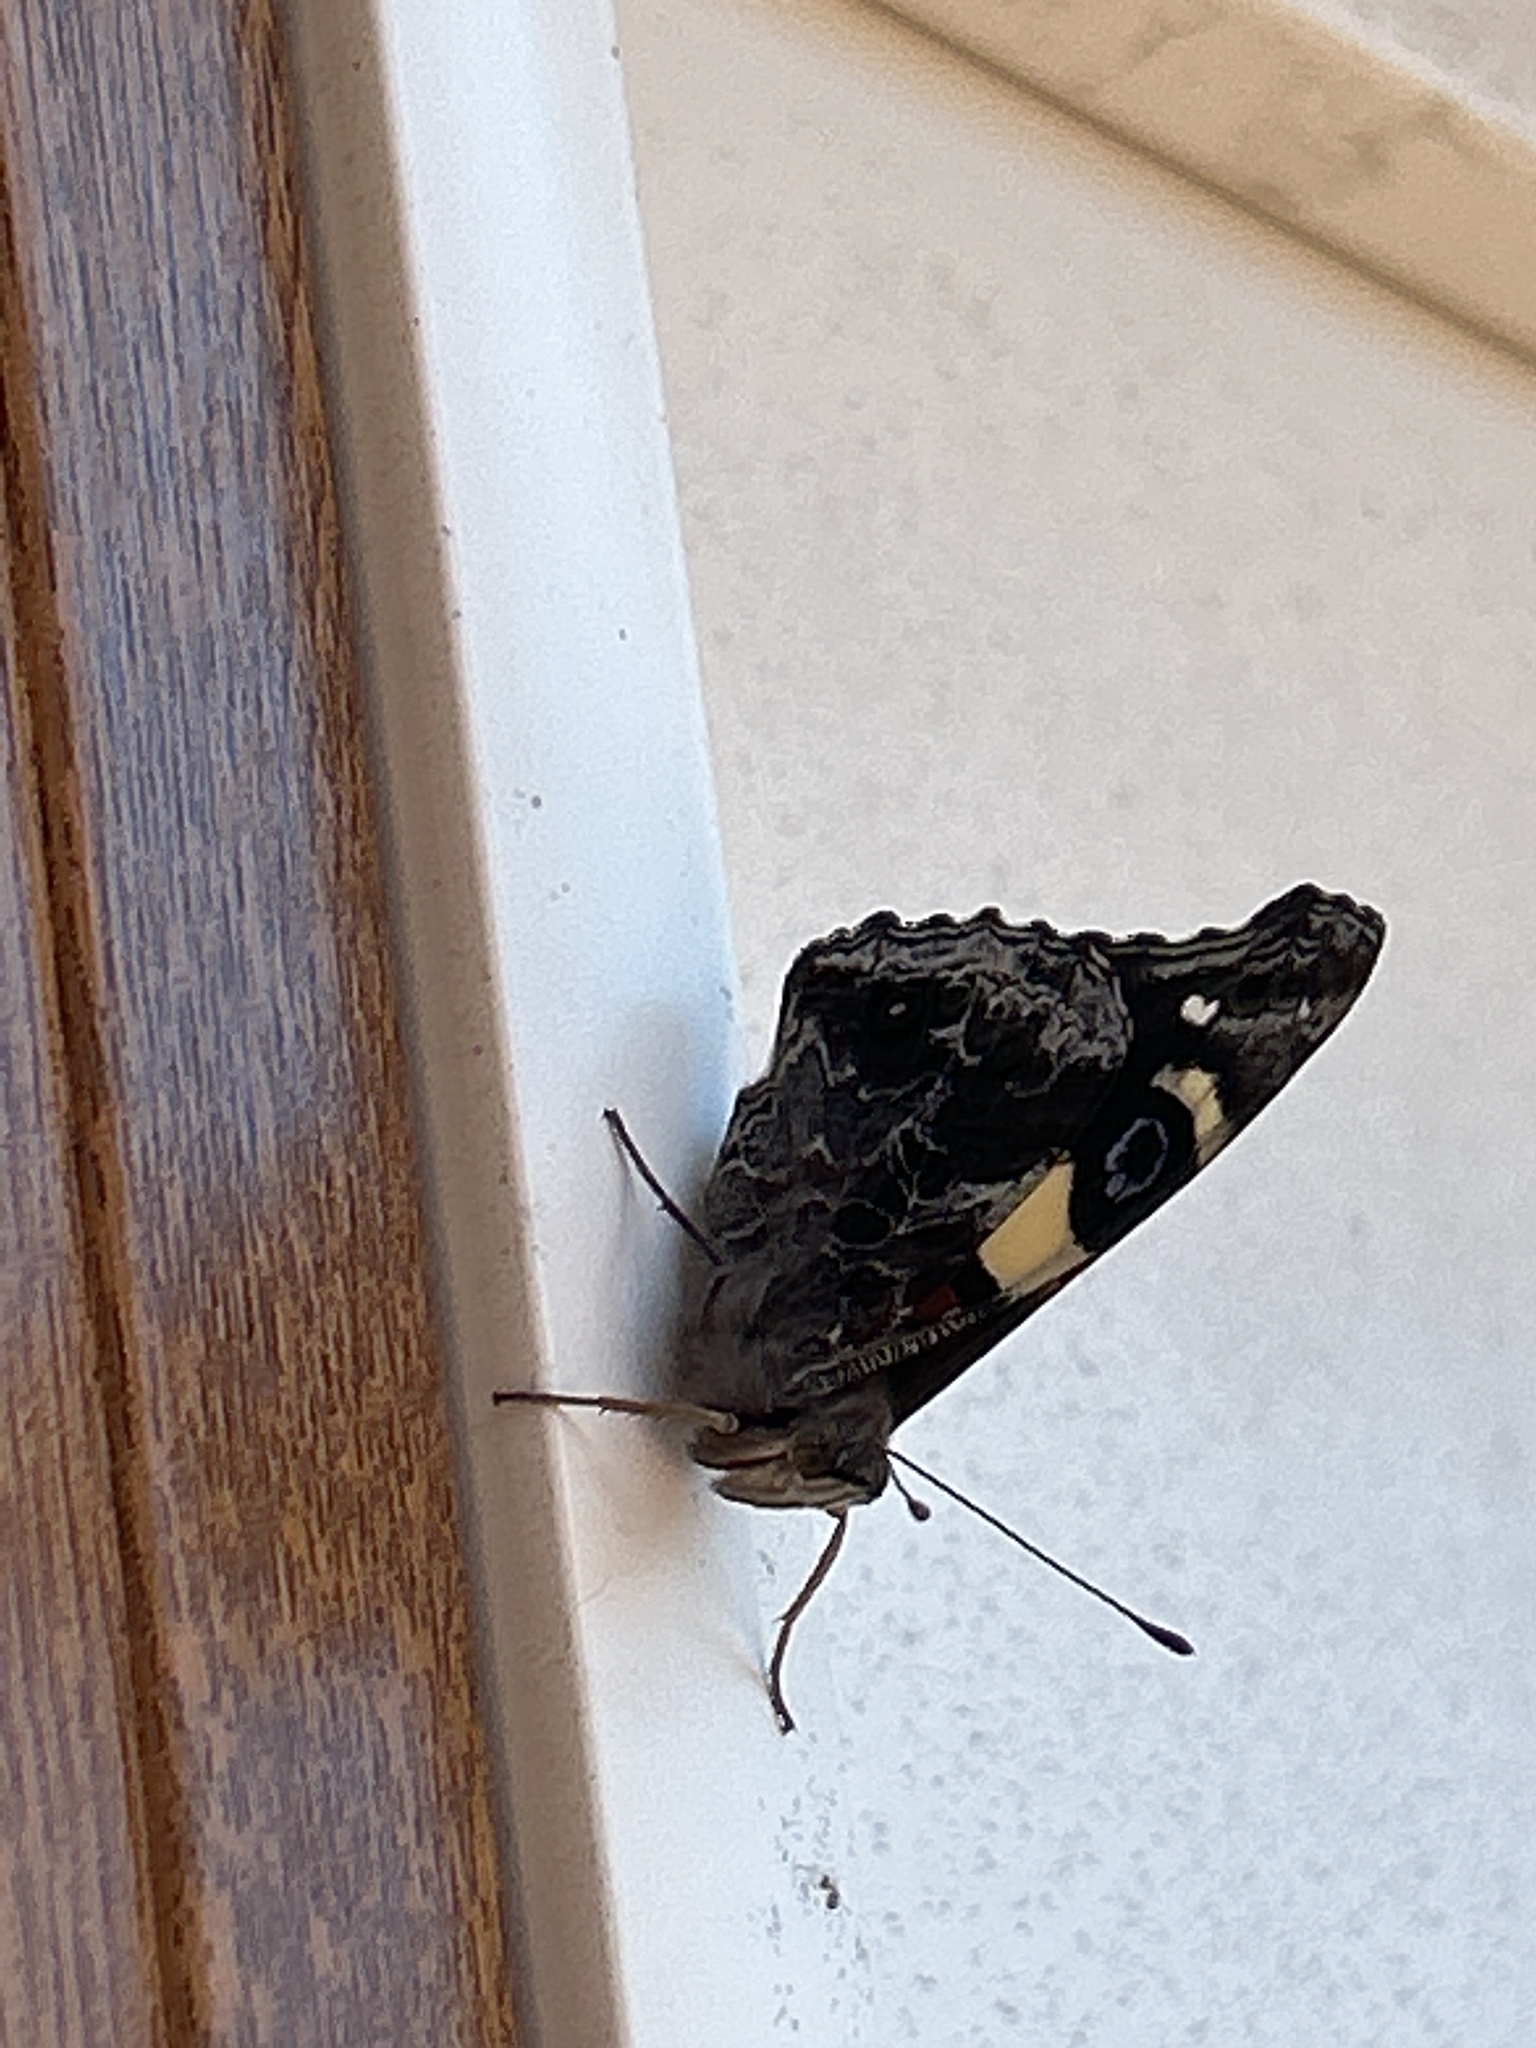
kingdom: Animalia
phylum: Arthropoda
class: Insecta
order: Lepidoptera
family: Nymphalidae
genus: Vanessa
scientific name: Vanessa itea
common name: Yellow admiral
